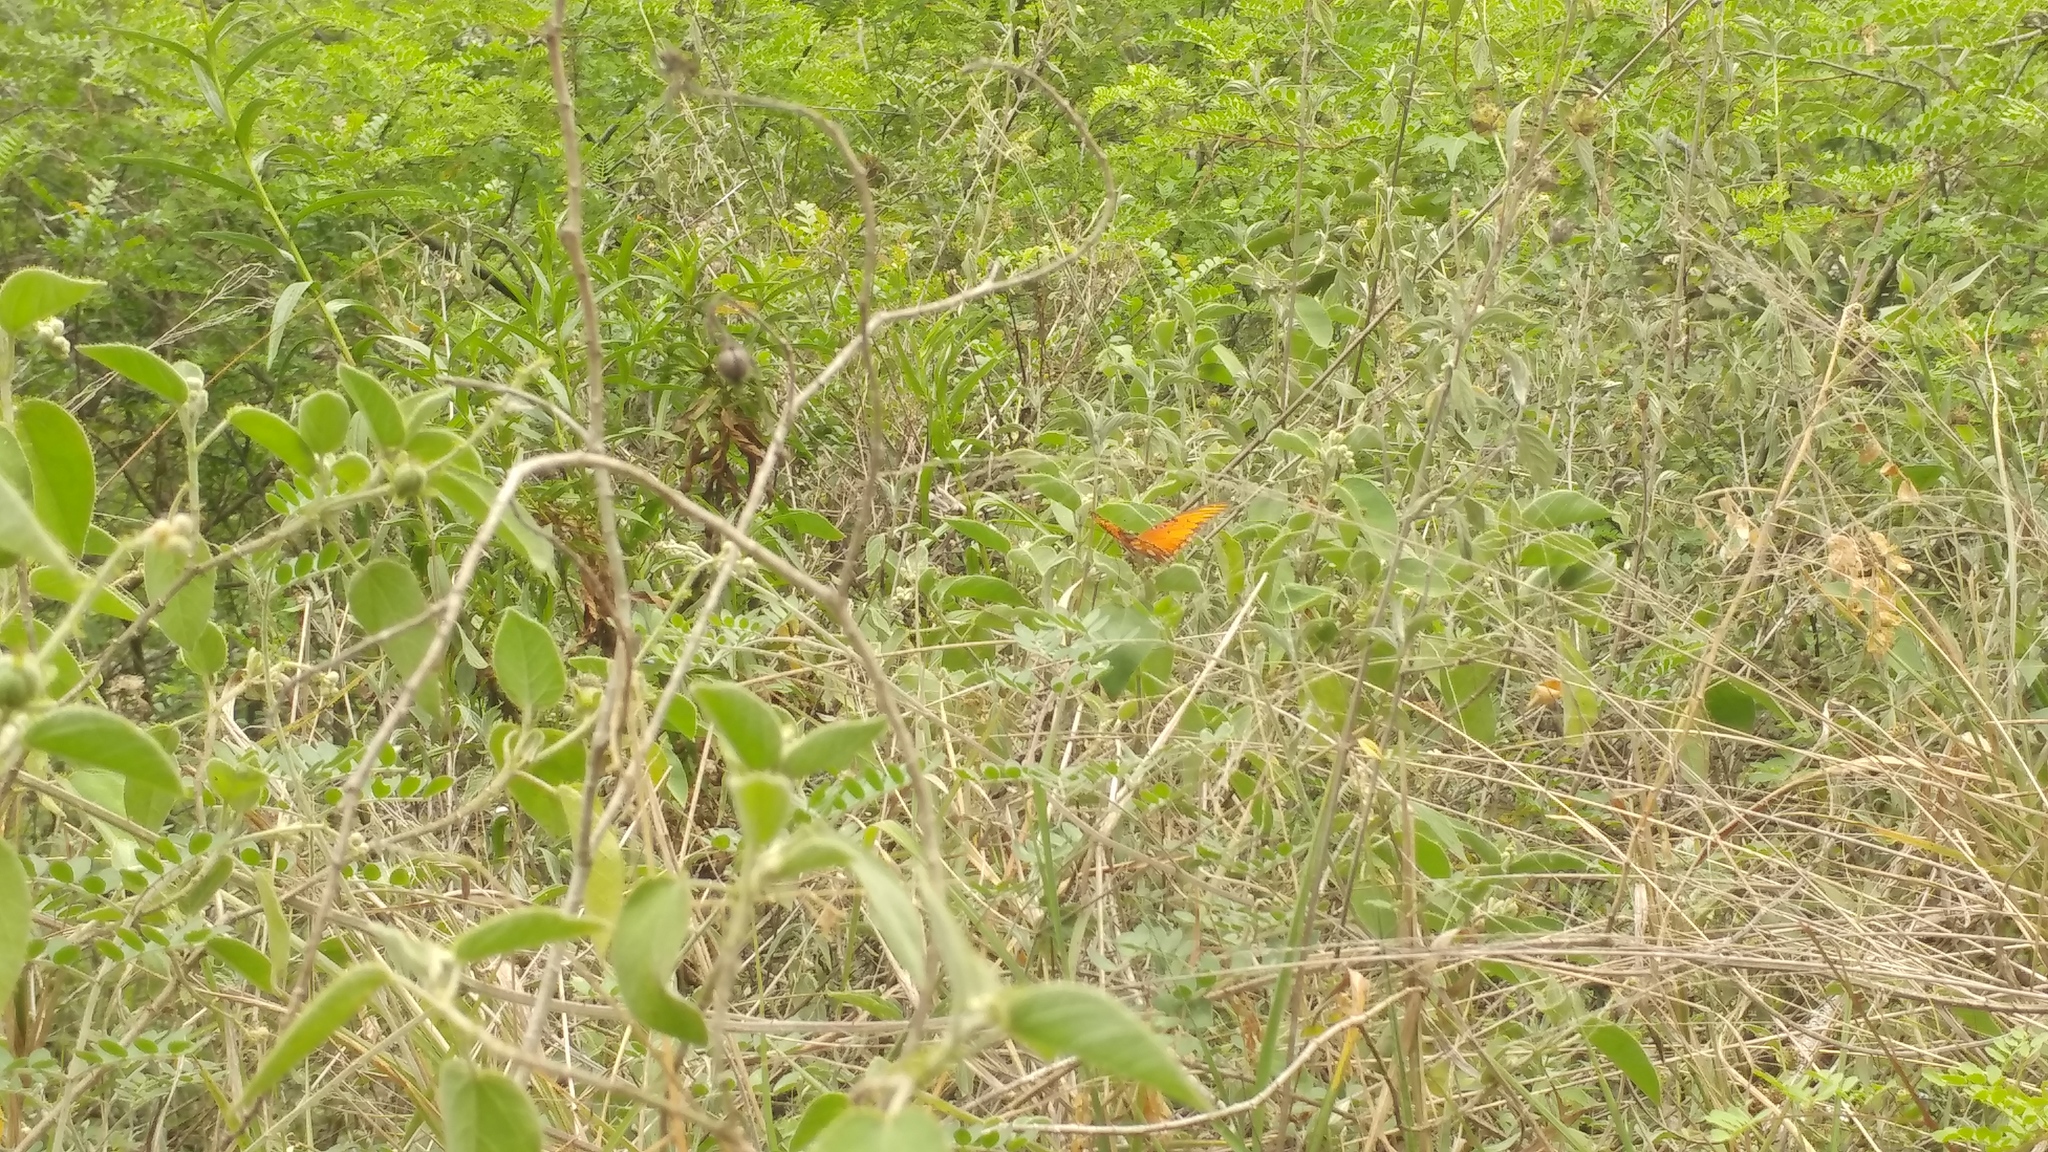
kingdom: Animalia
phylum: Arthropoda
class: Insecta
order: Lepidoptera
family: Nymphalidae
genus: Dione
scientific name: Dione vanillae
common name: Gulf fritillary
